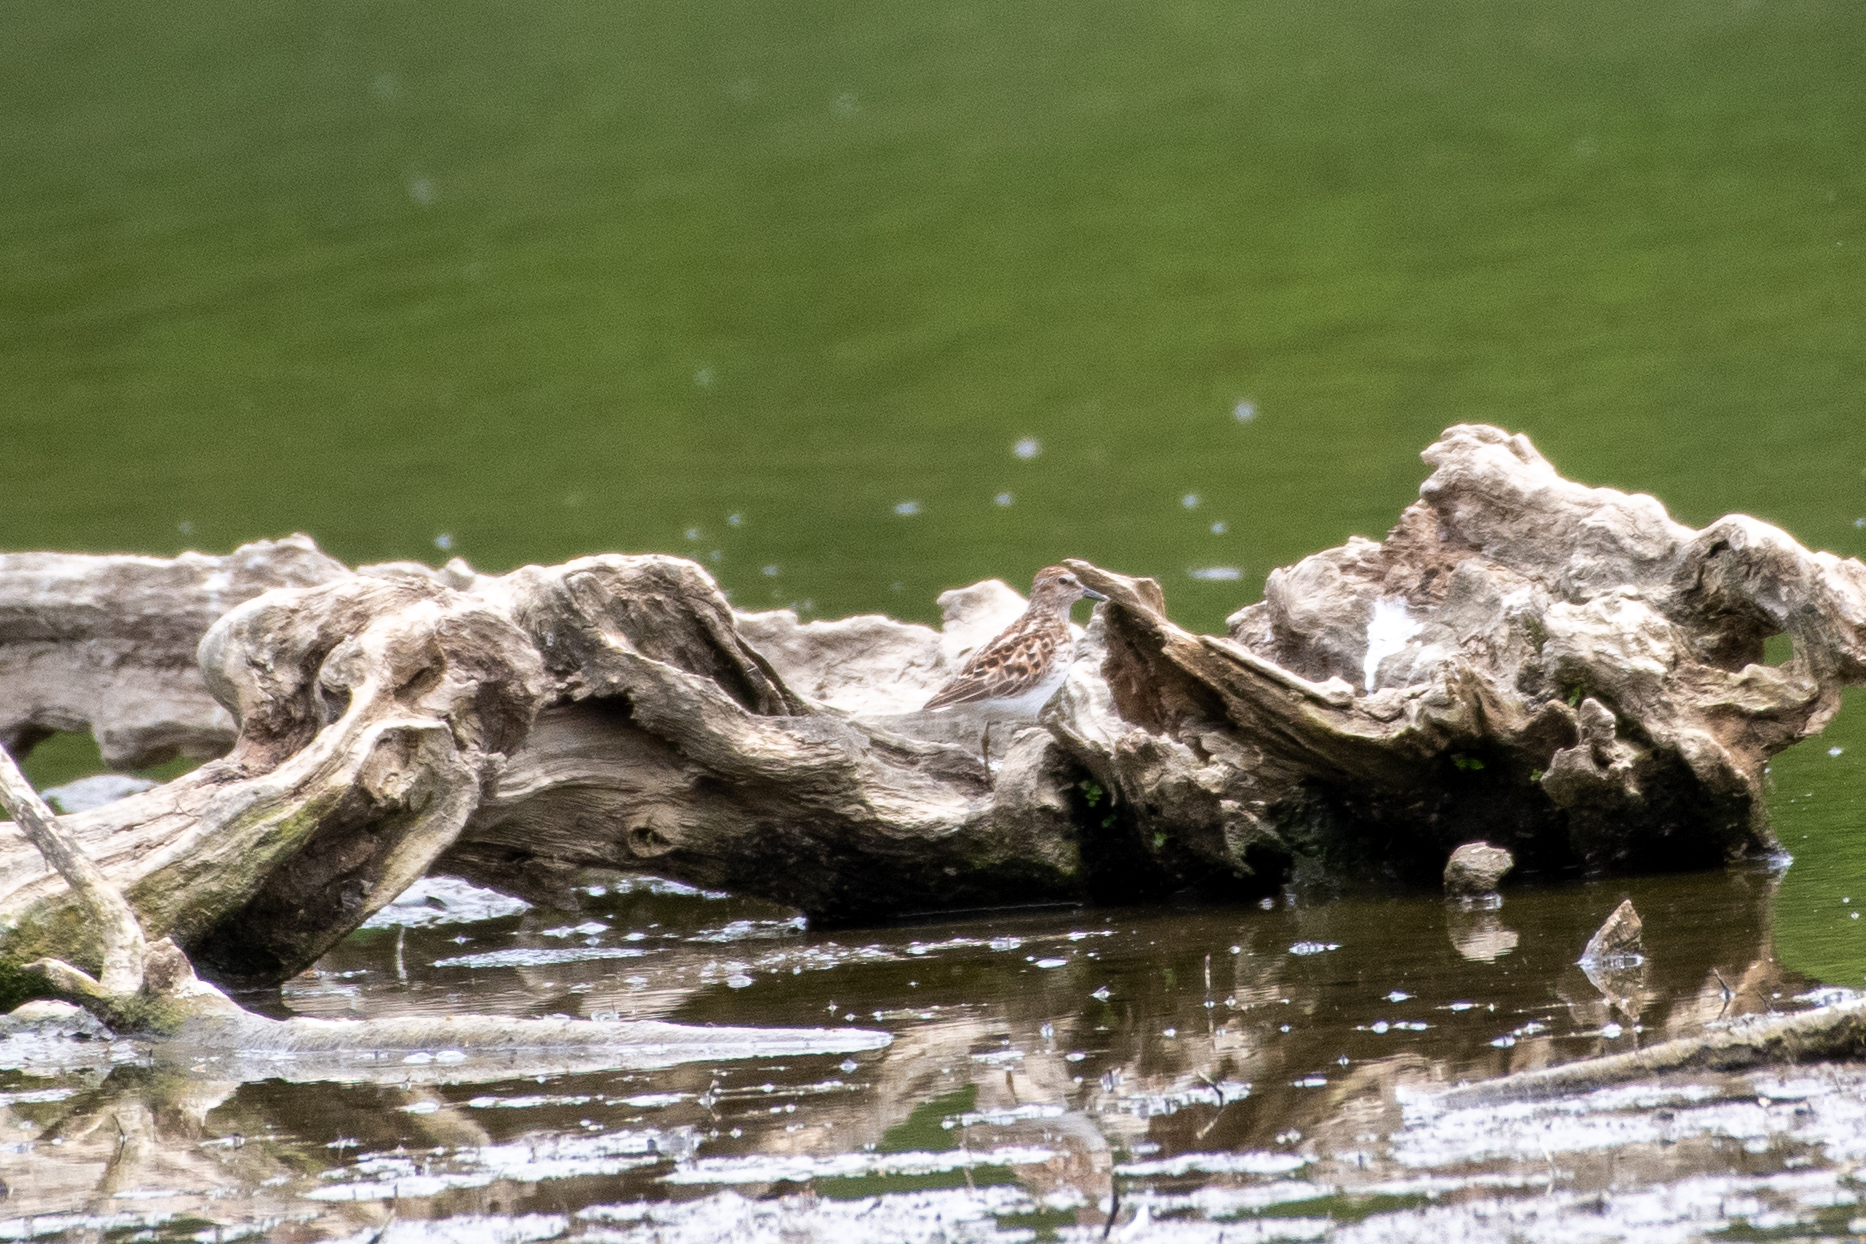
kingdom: Animalia
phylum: Chordata
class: Aves
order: Charadriiformes
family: Scolopacidae
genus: Calidris
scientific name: Calidris minutilla
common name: Least sandpiper
